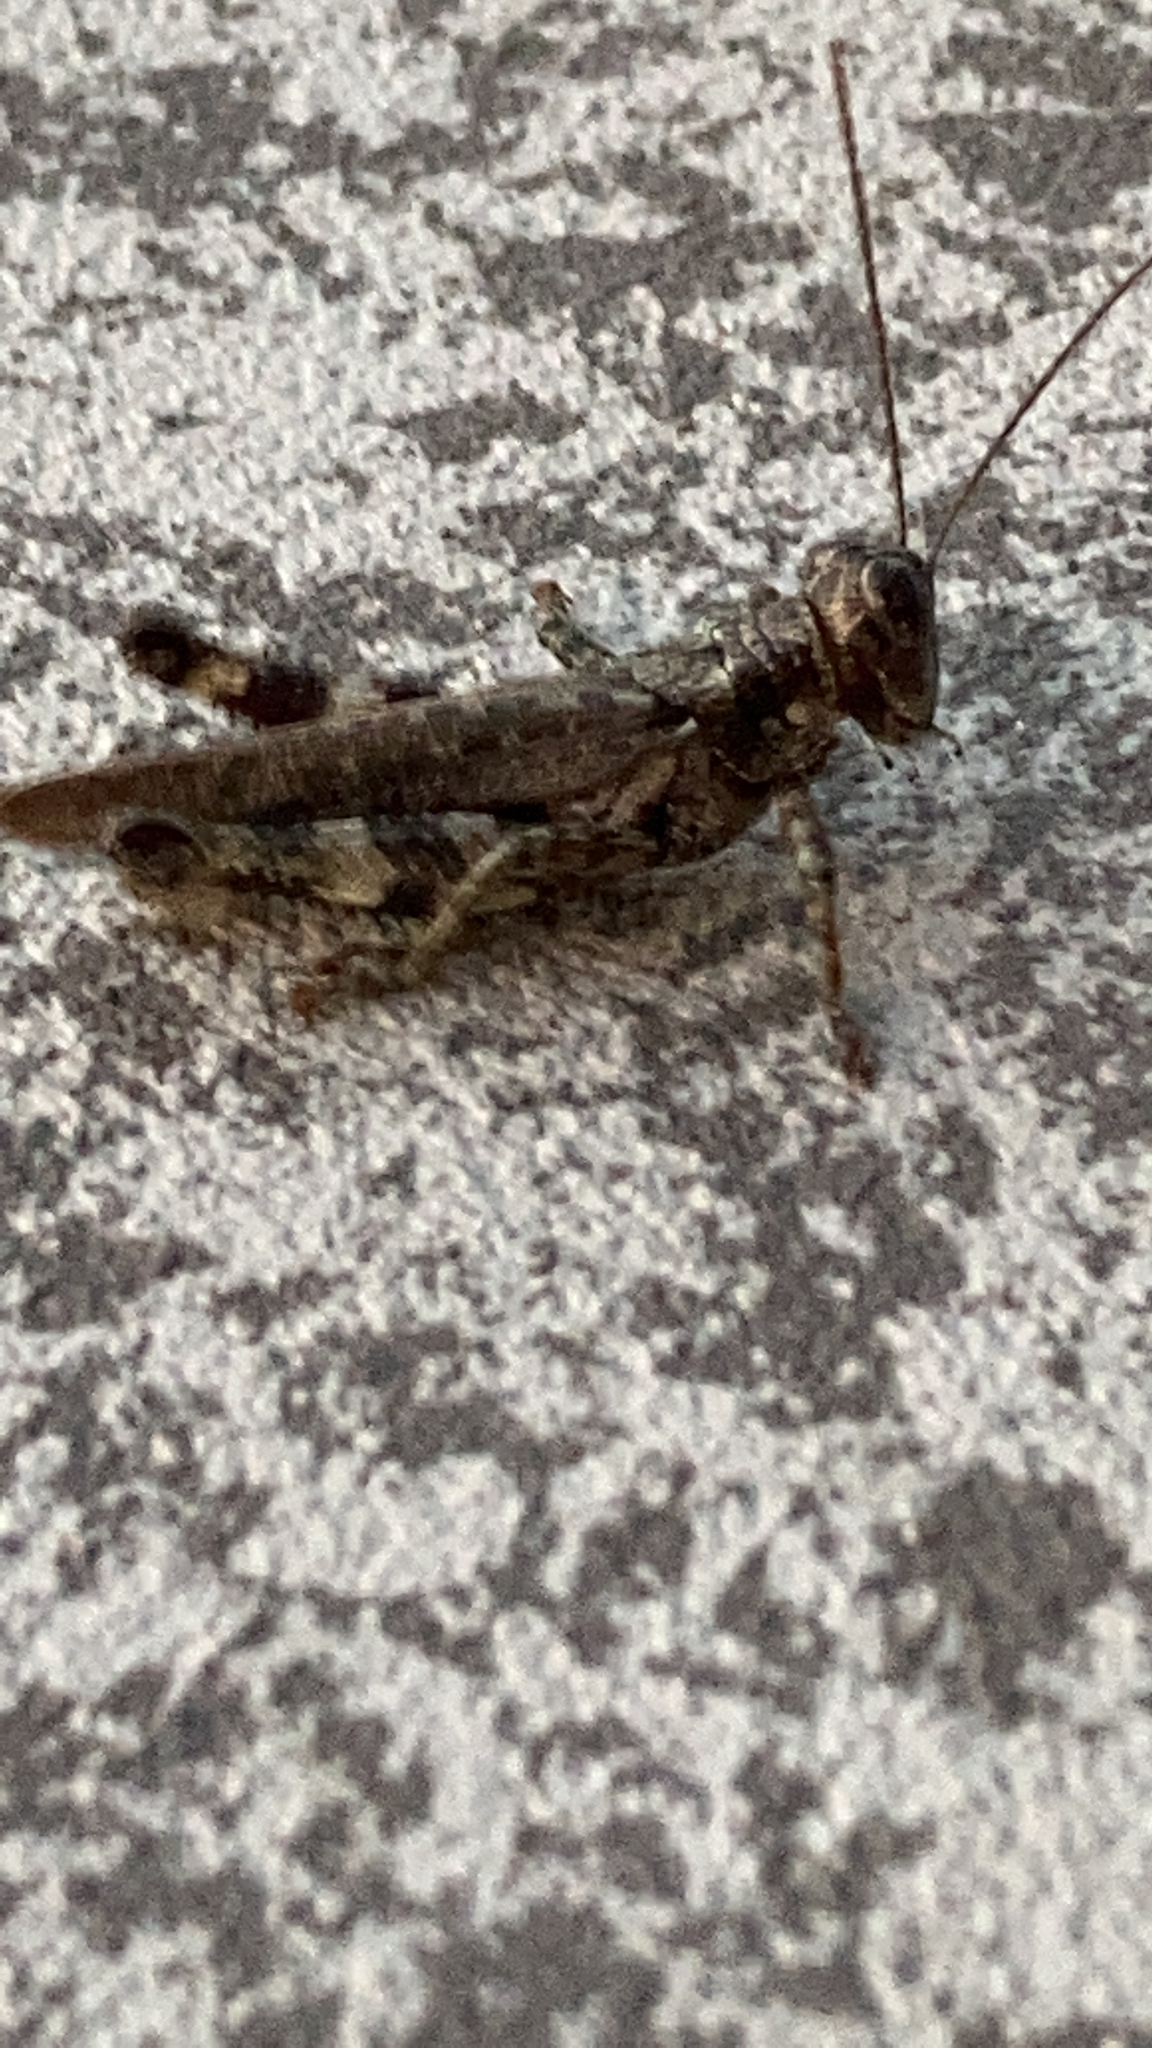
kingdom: Animalia
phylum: Arthropoda
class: Insecta
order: Orthoptera
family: Acrididae
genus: Melanoplus
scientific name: Melanoplus punctulatus
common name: Pine-tree spur-throat grasshopper
